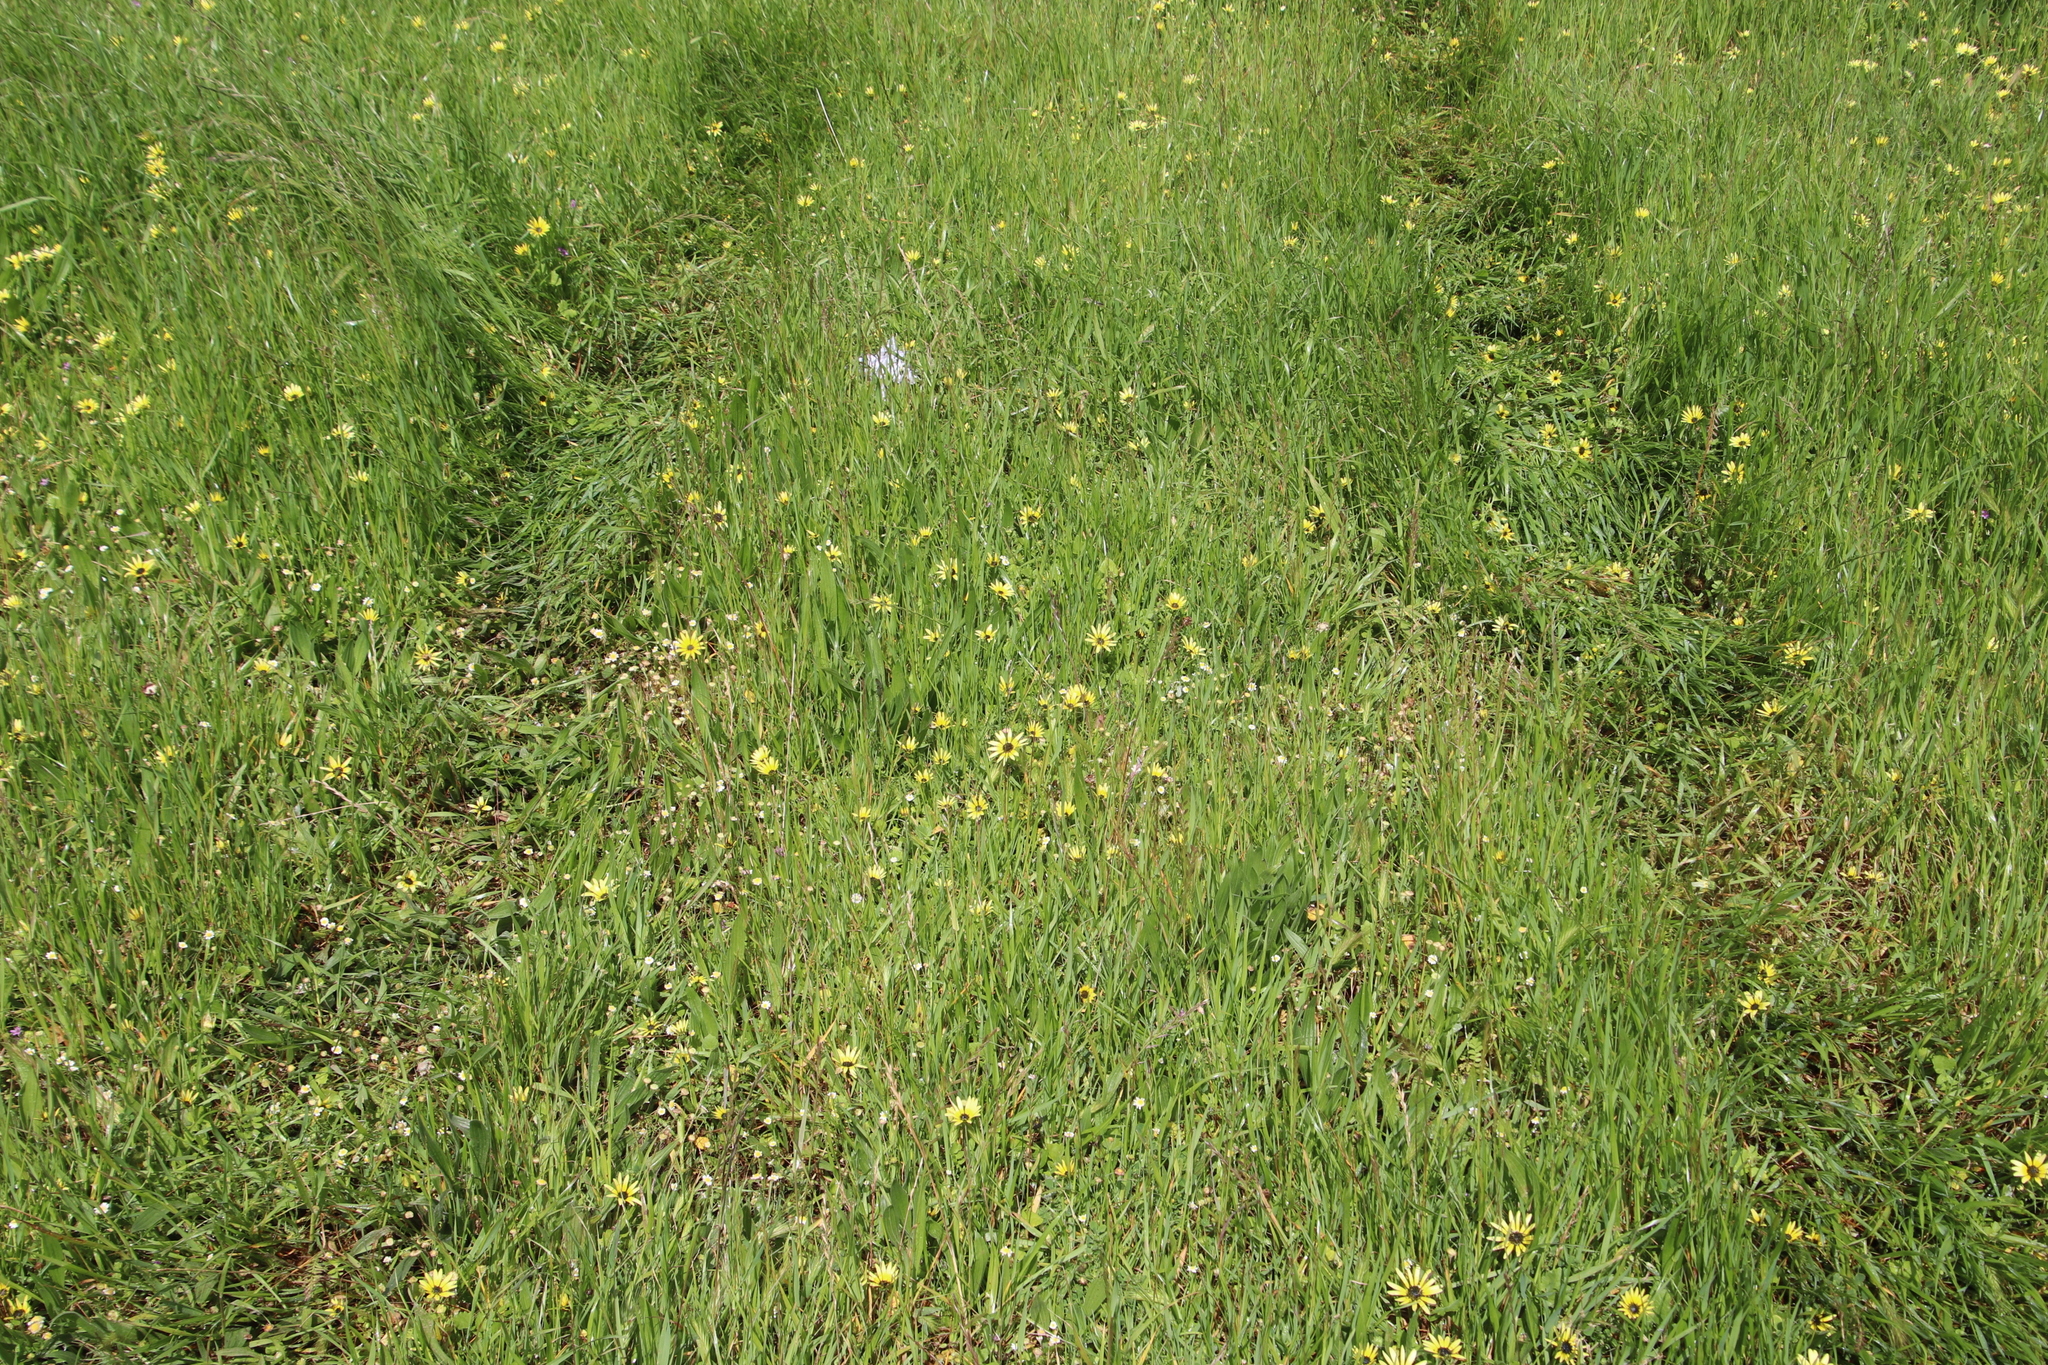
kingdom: Plantae
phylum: Tracheophyta
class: Magnoliopsida
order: Asterales
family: Asteraceae
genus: Arctotheca
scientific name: Arctotheca calendula
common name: Capeweed
